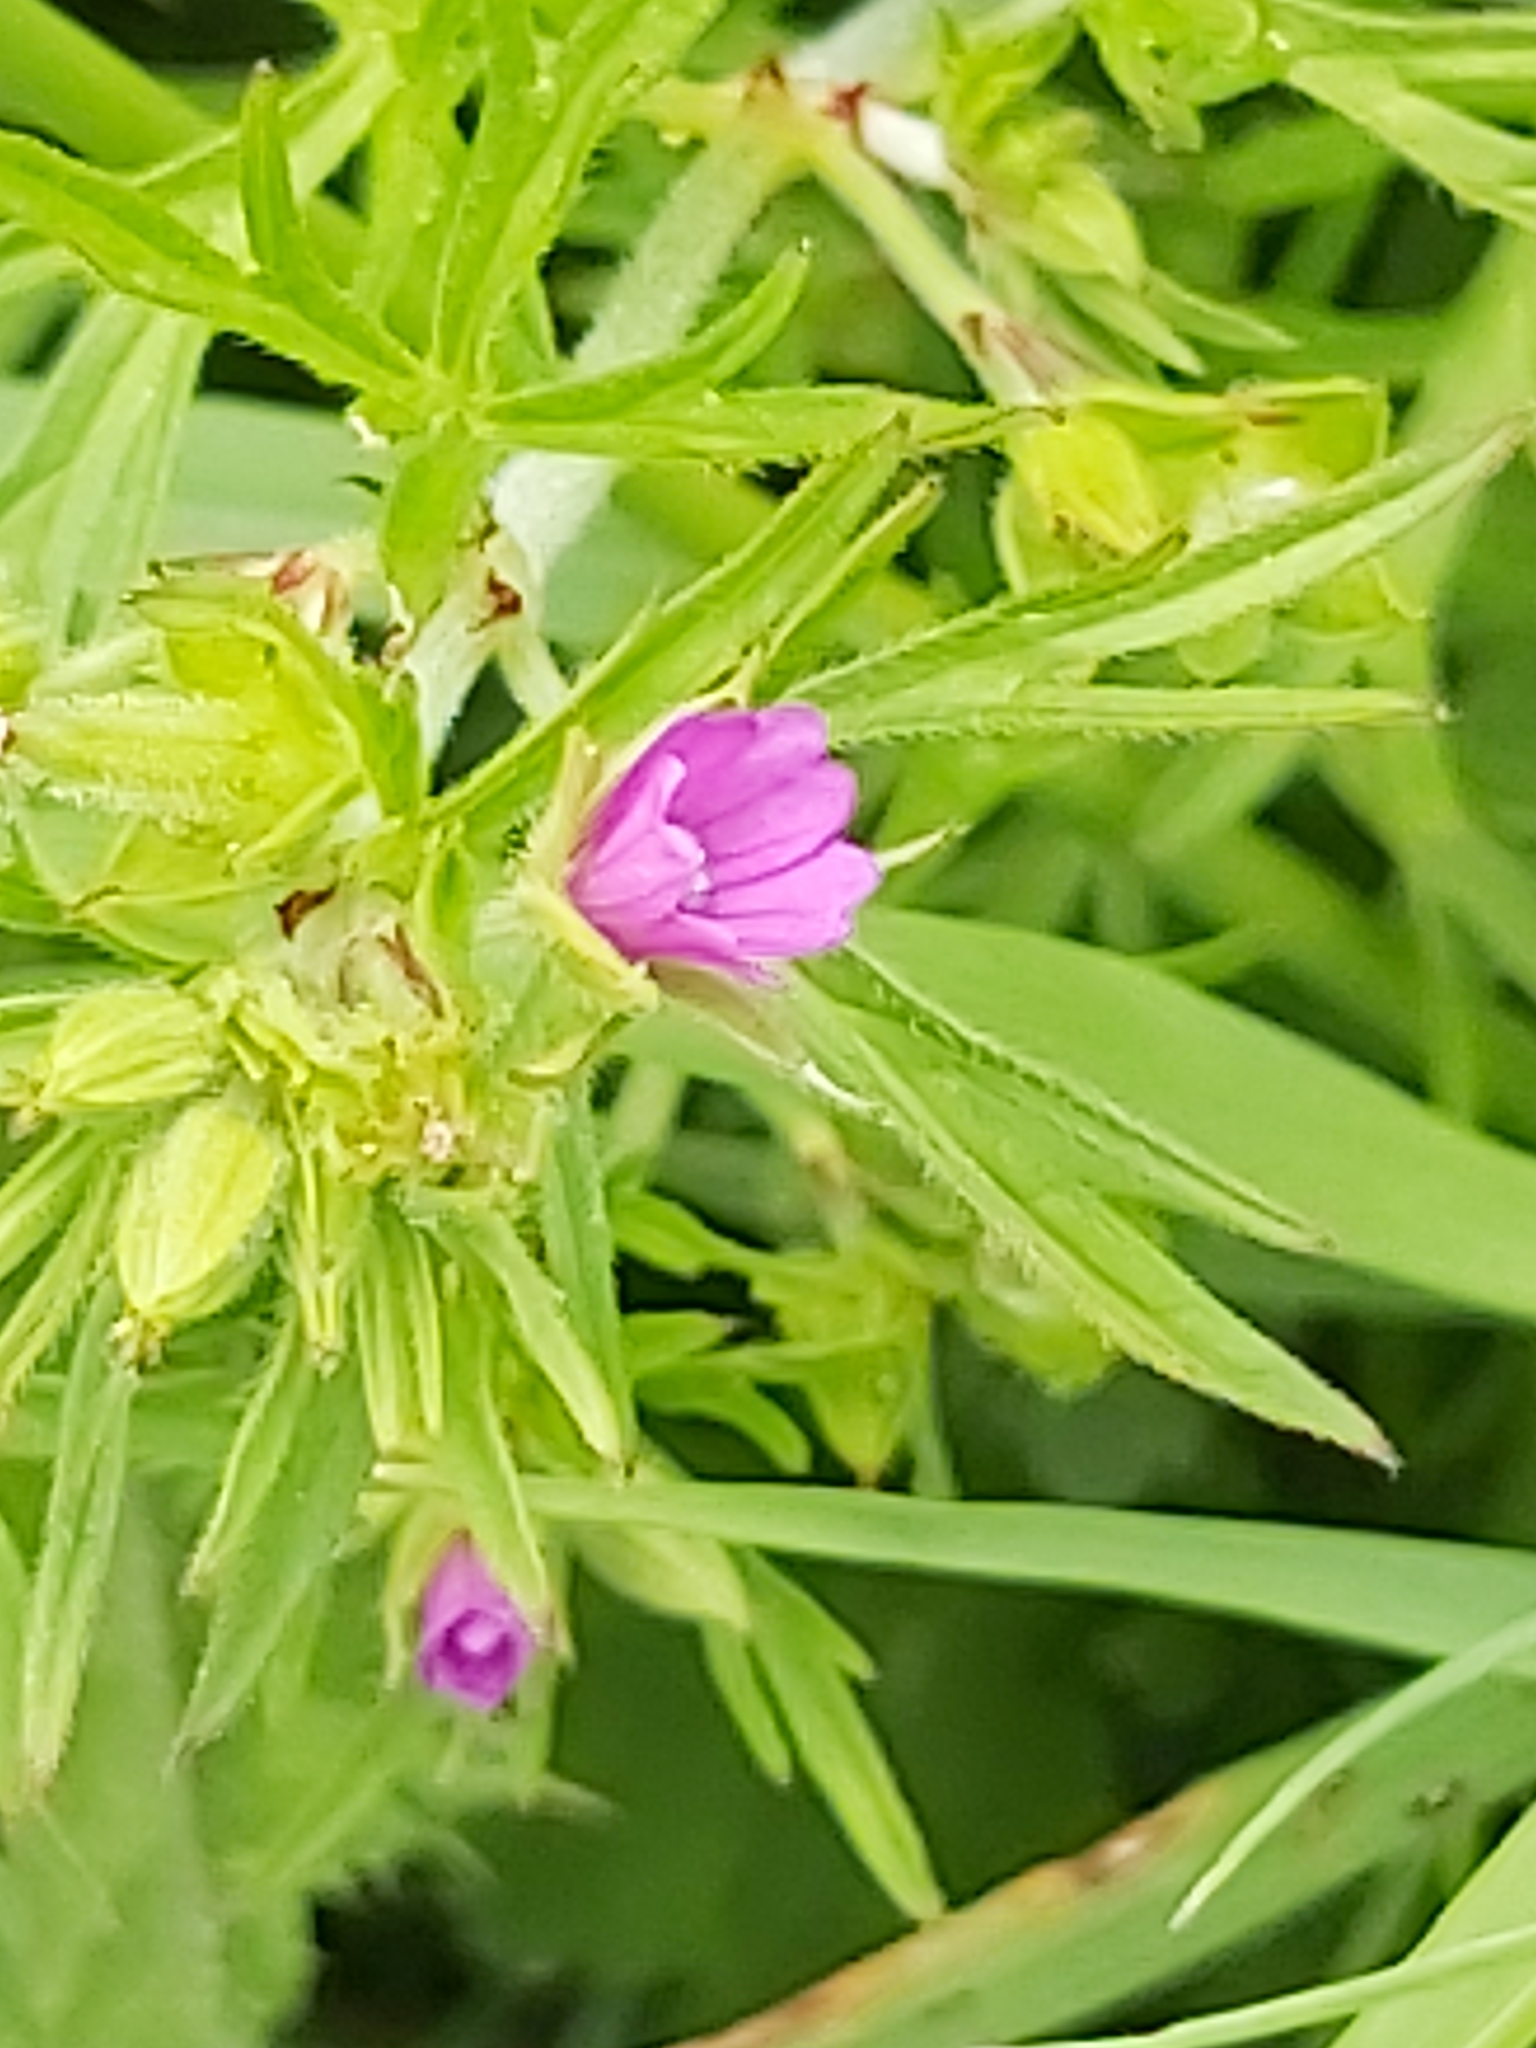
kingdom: Plantae
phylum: Tracheophyta
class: Magnoliopsida
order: Geraniales
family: Geraniaceae
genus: Geranium
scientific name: Geranium dissectum
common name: Cut-leaved crane's-bill
